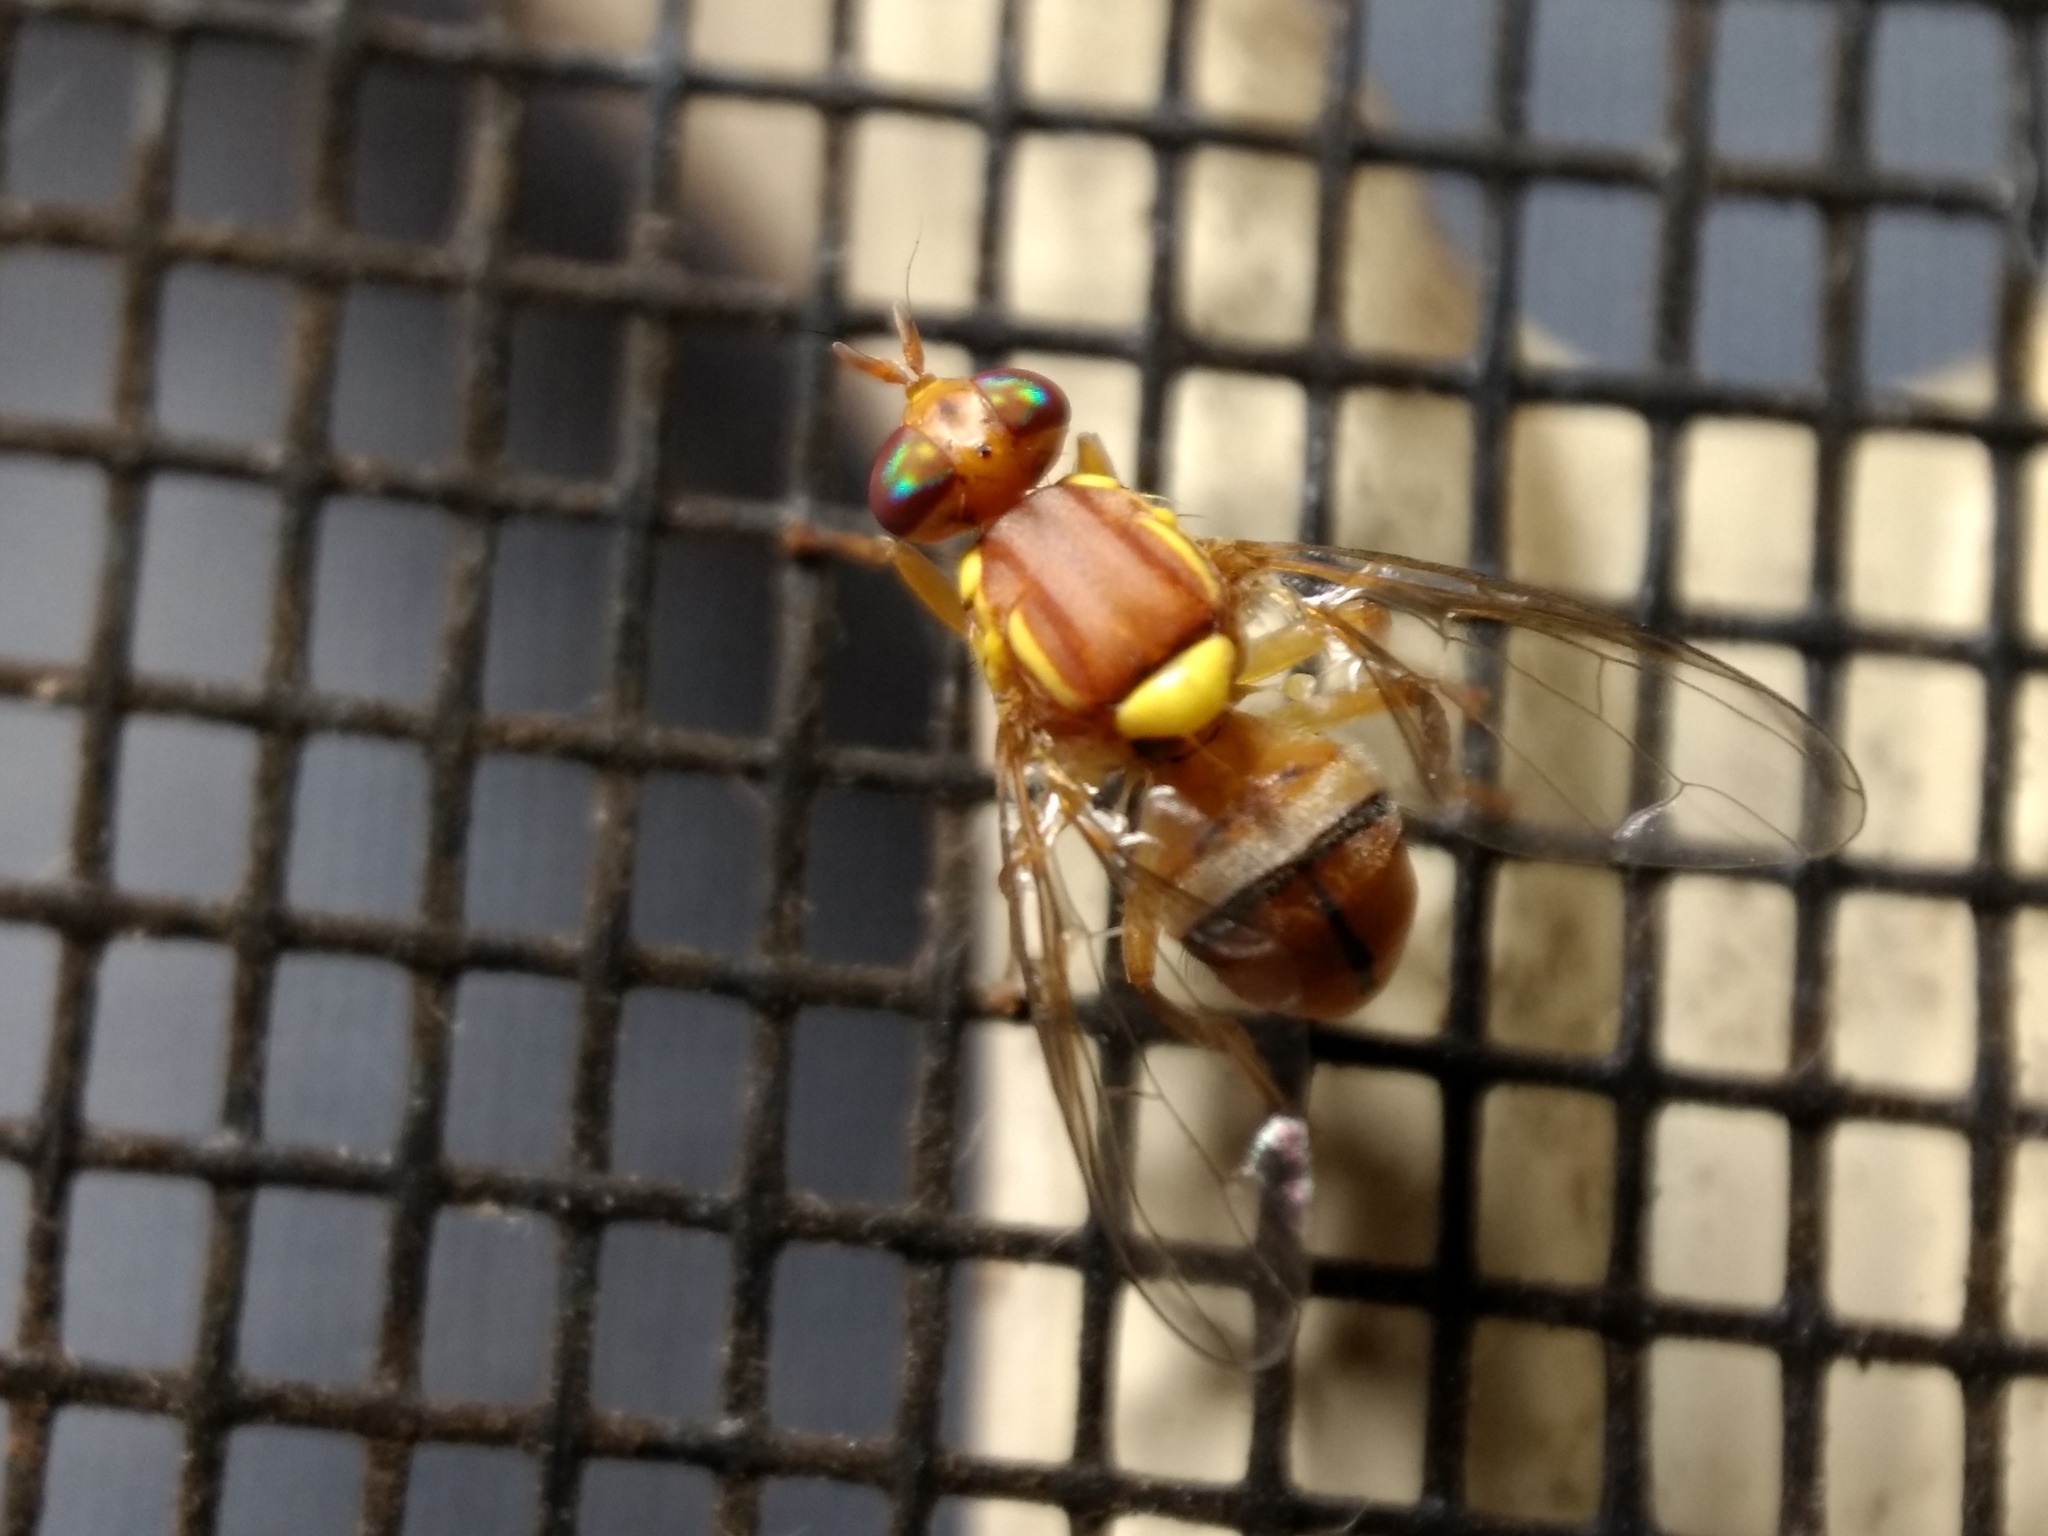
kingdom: Animalia
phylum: Arthropoda
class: Insecta
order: Diptera
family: Tephritidae
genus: Bactrocera
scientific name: Bactrocera jarvisi
